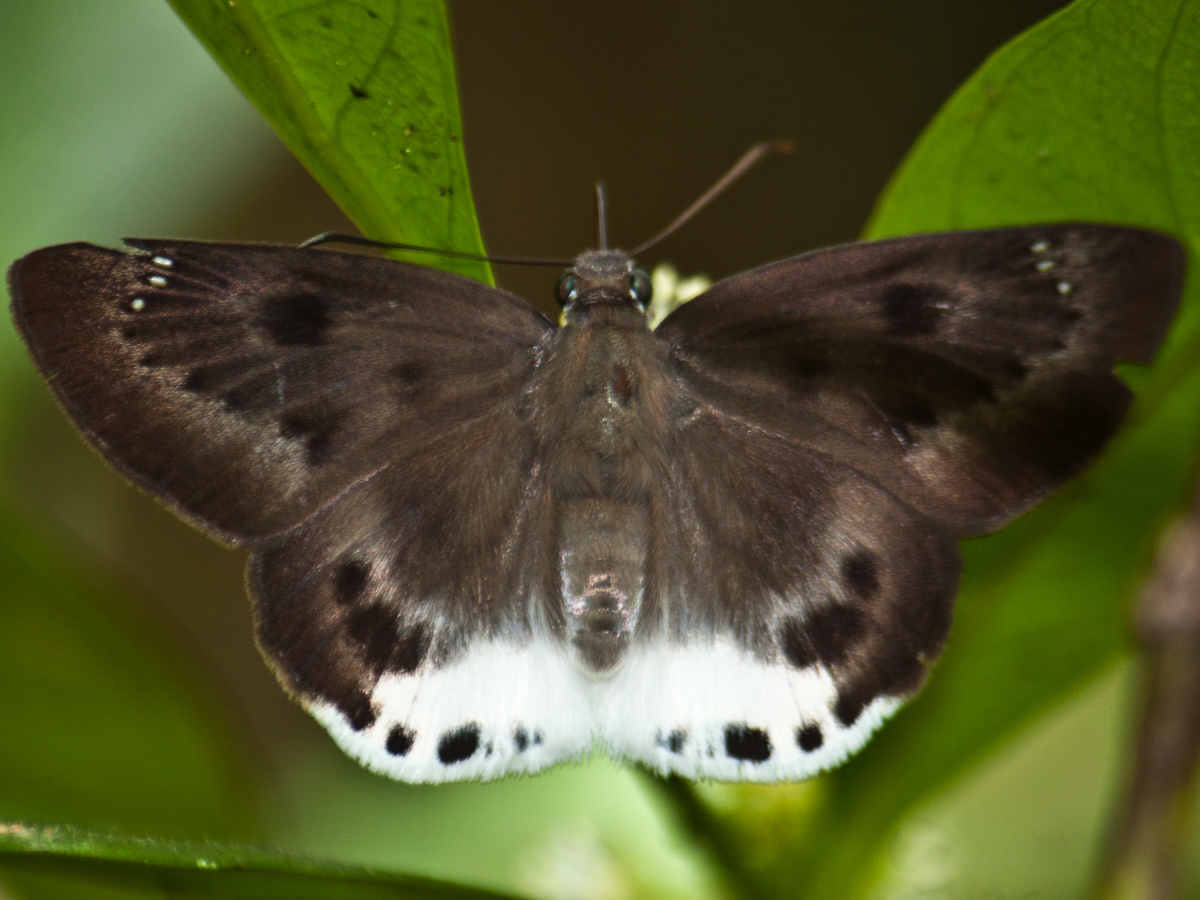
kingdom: Animalia
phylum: Arthropoda
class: Insecta
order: Lepidoptera
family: Hesperiidae
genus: Tagiades
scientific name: Tagiades parra
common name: Straight snow flat
